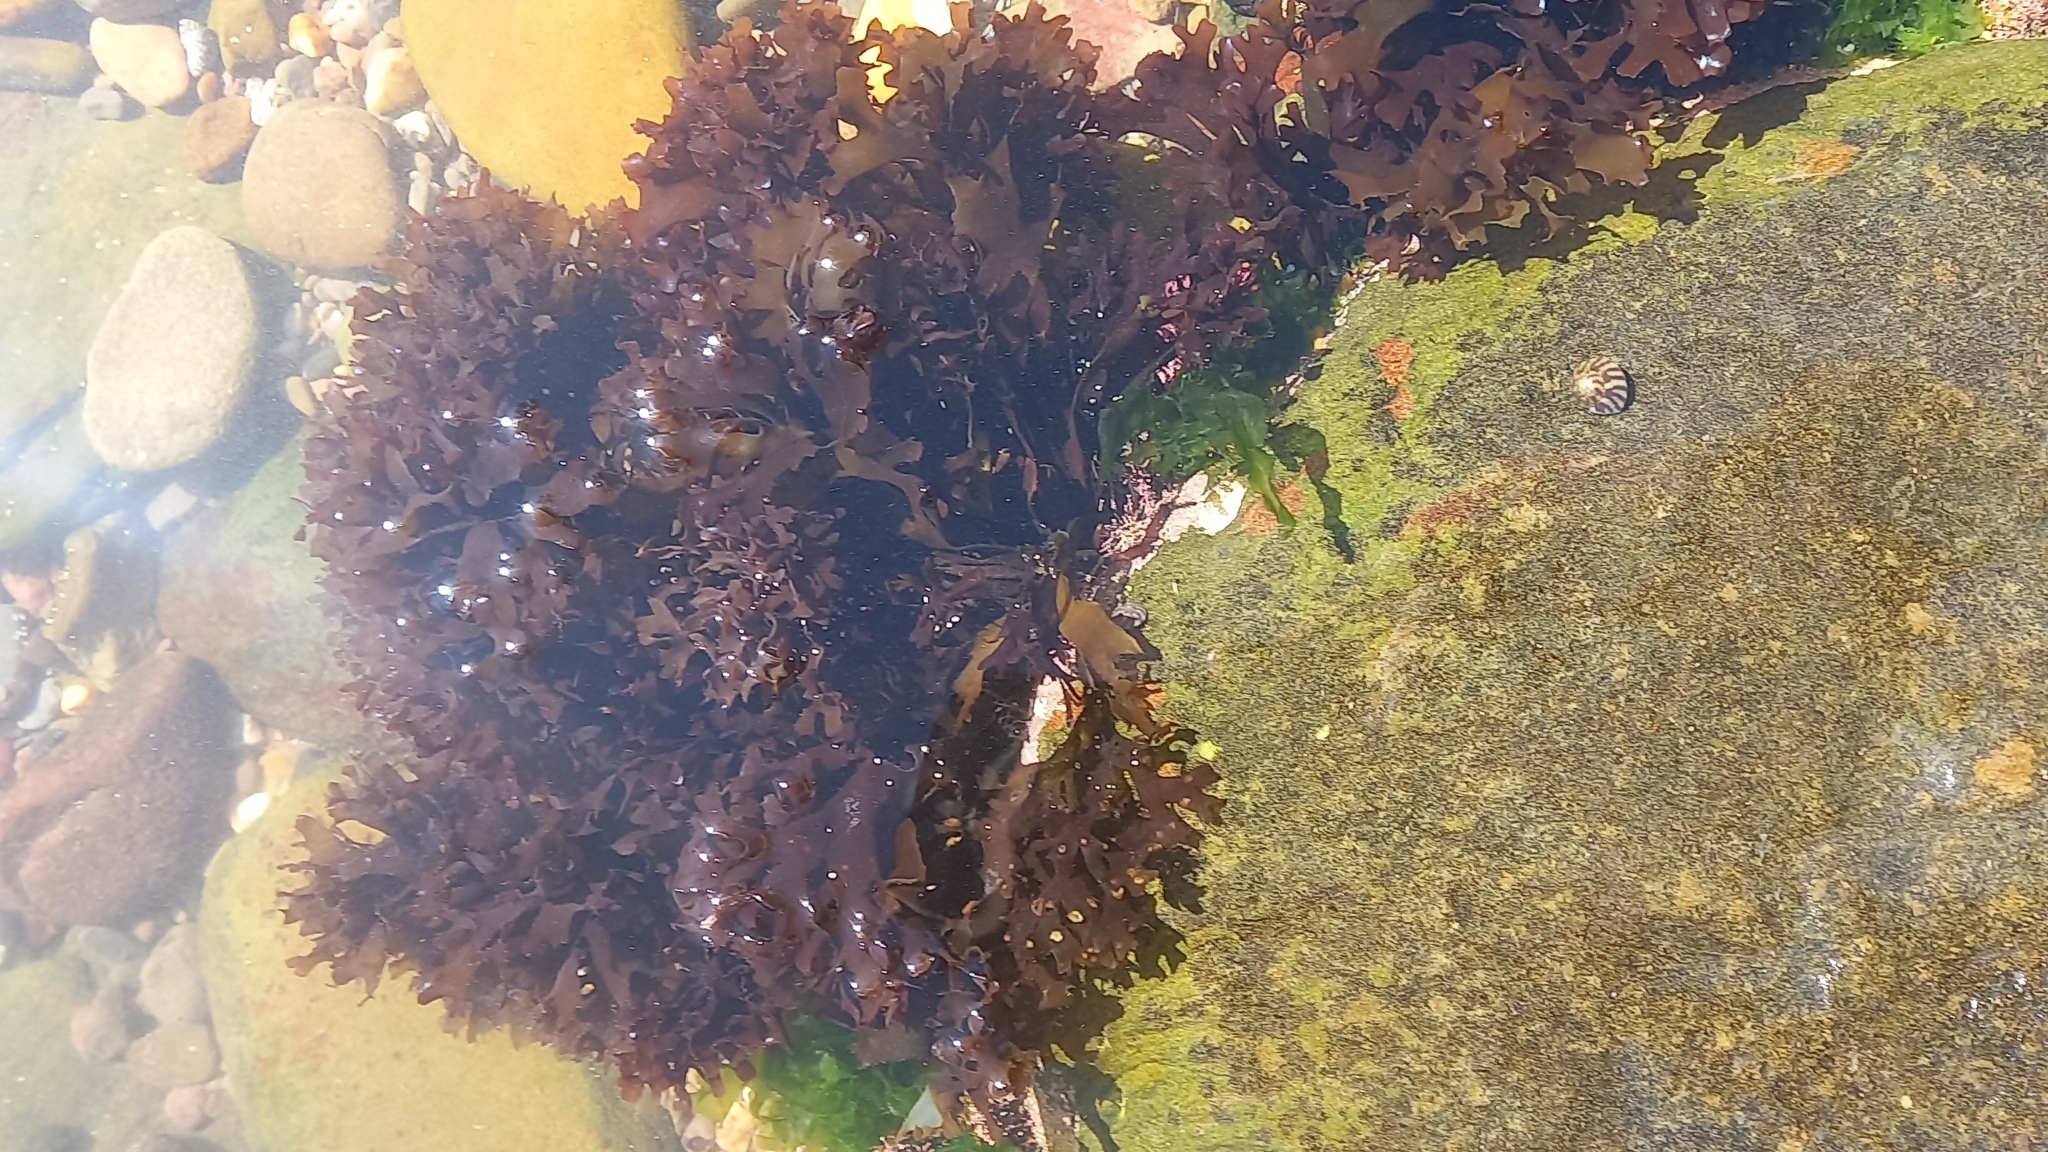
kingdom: Plantae
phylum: Rhodophyta
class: Florideophyceae
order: Gigartinales
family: Gigartinaceae
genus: Chondrus
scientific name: Chondrus crispus
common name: Carrageen
